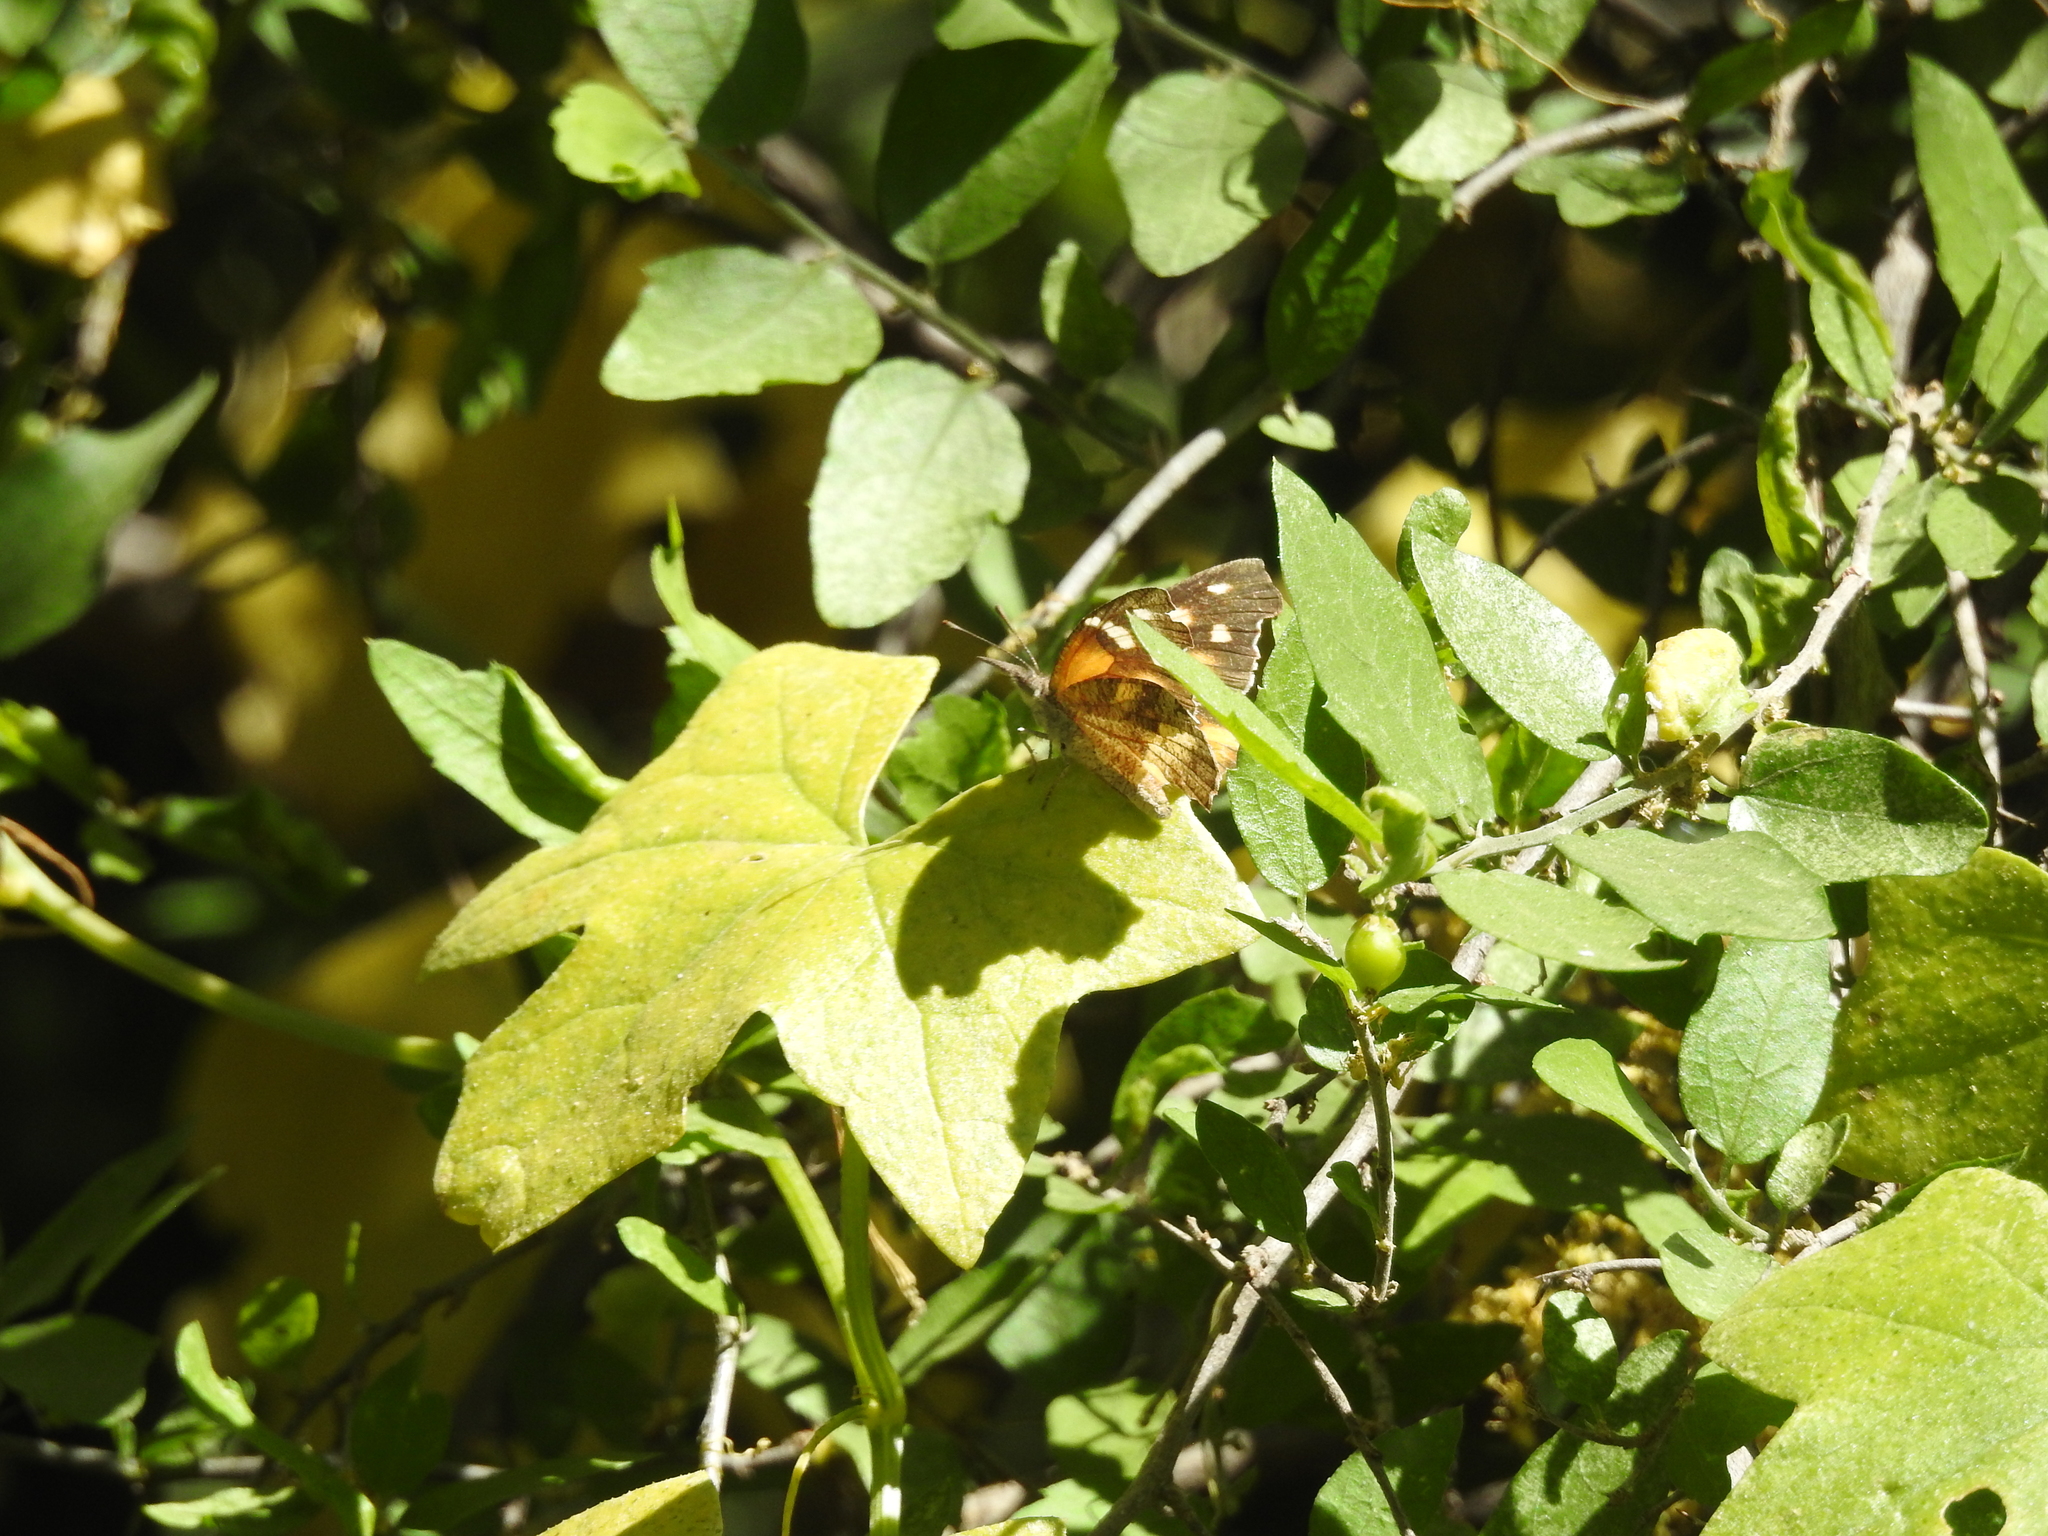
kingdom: Animalia
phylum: Arthropoda
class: Insecta
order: Lepidoptera
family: Nymphalidae
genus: Libytheana
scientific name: Libytheana carinenta
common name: American snout
